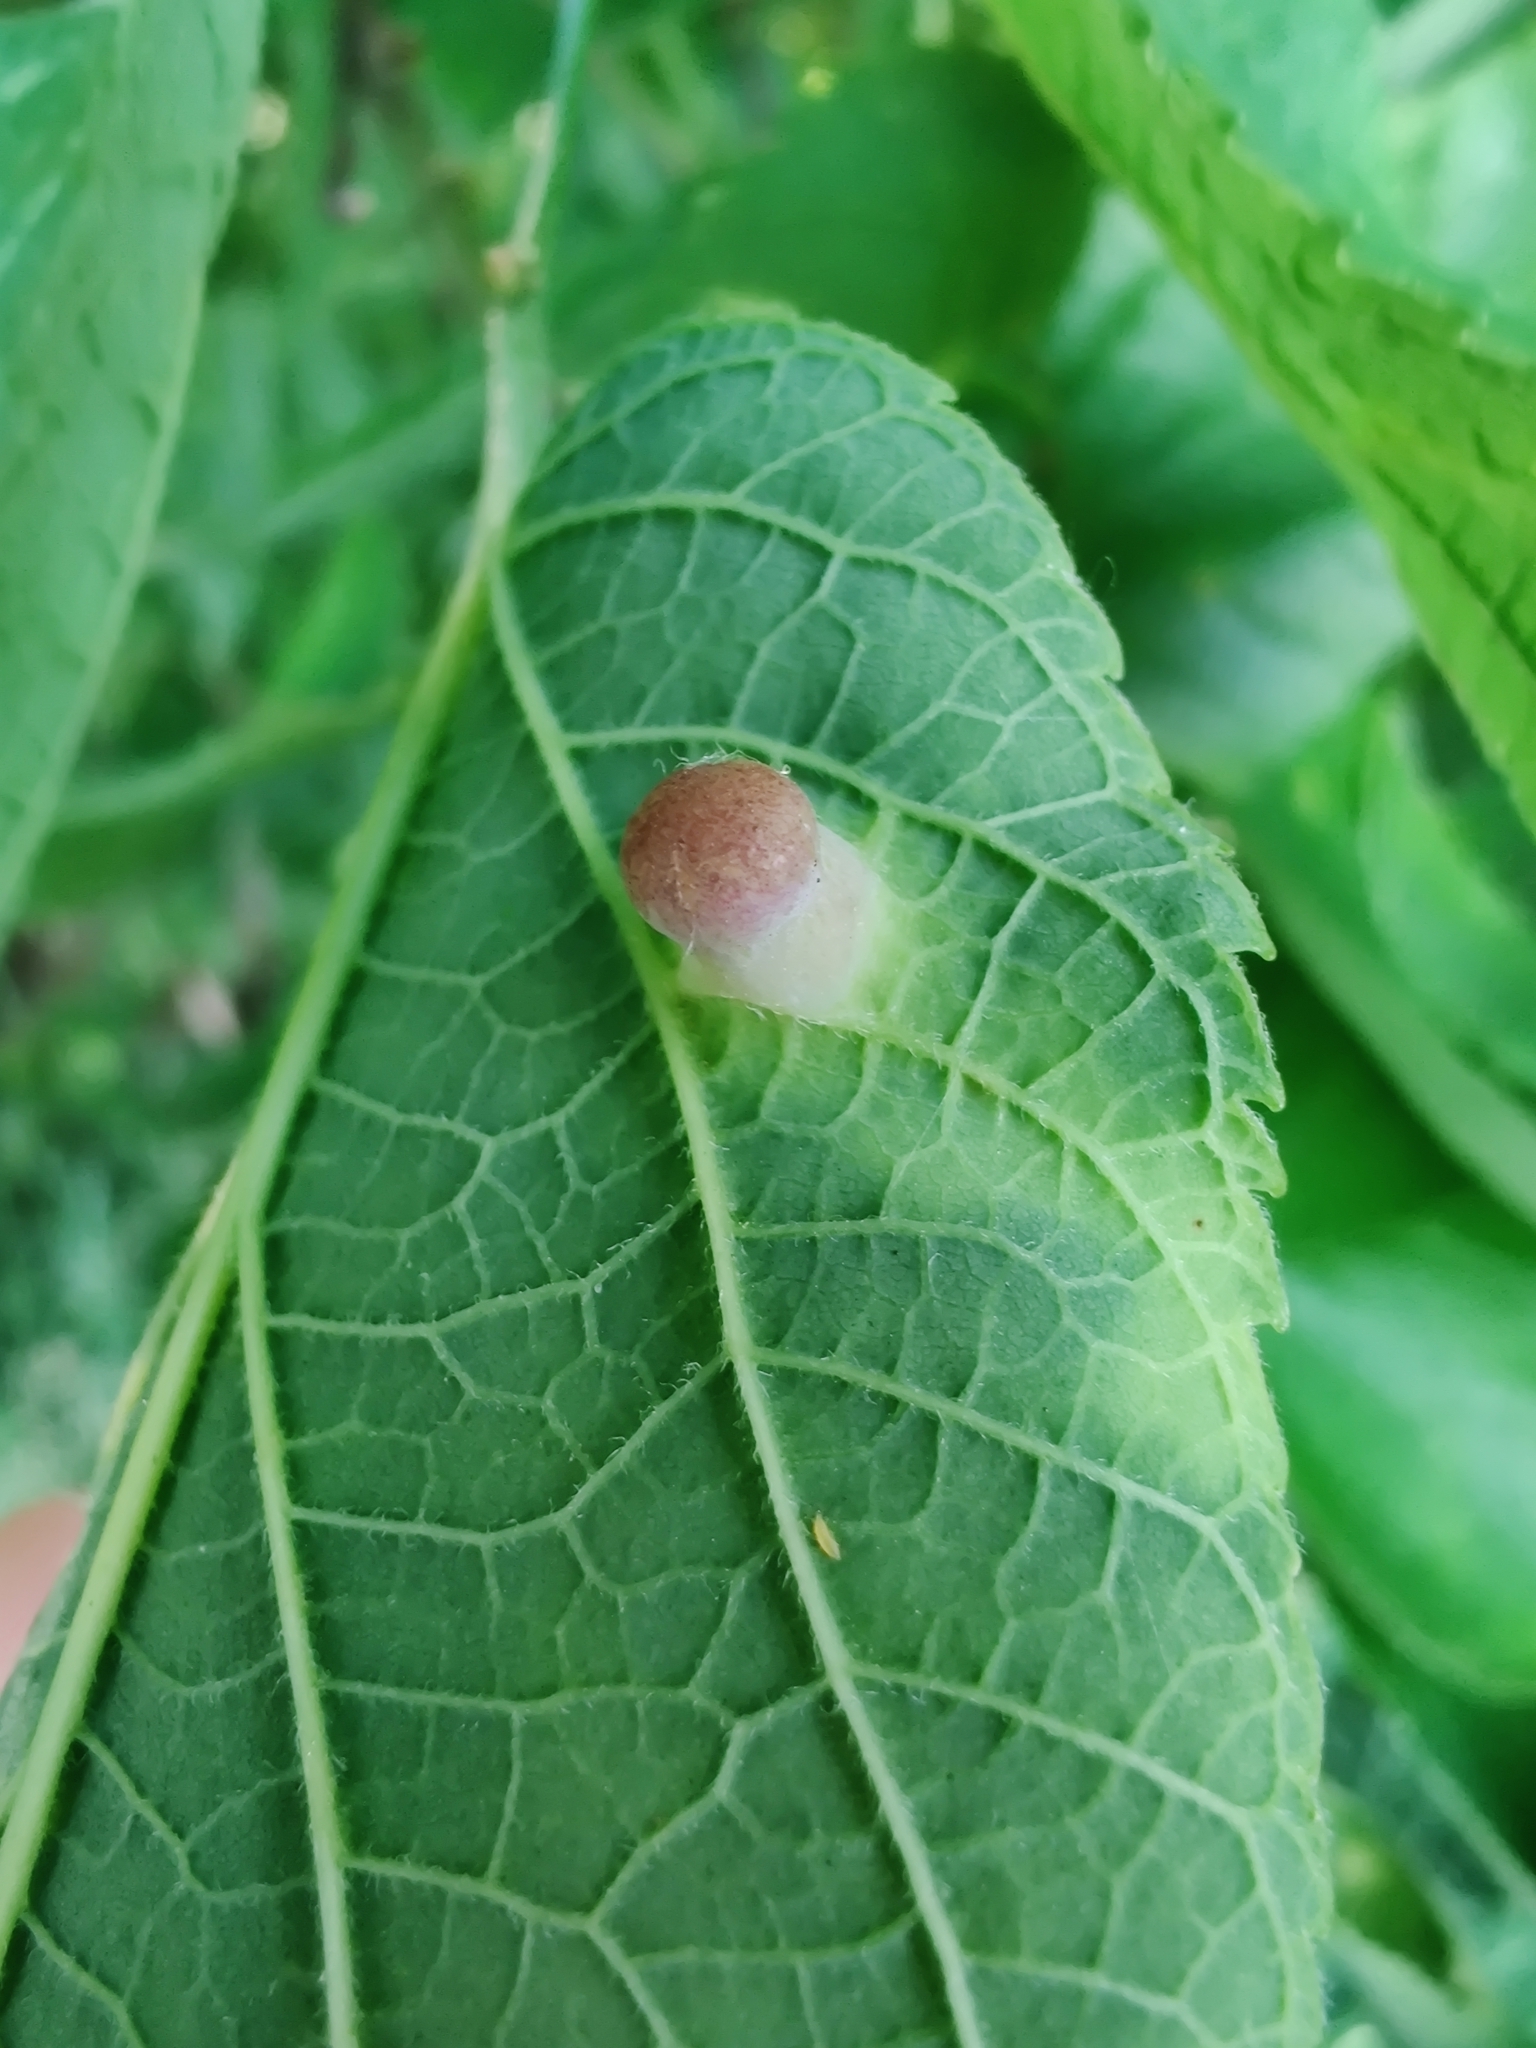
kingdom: Animalia
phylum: Arthropoda
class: Insecta
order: Hemiptera
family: Aphalaridae
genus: Pachypsylla
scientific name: Pachypsylla celtidismamma
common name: Hackberry nipplegall psyllid
